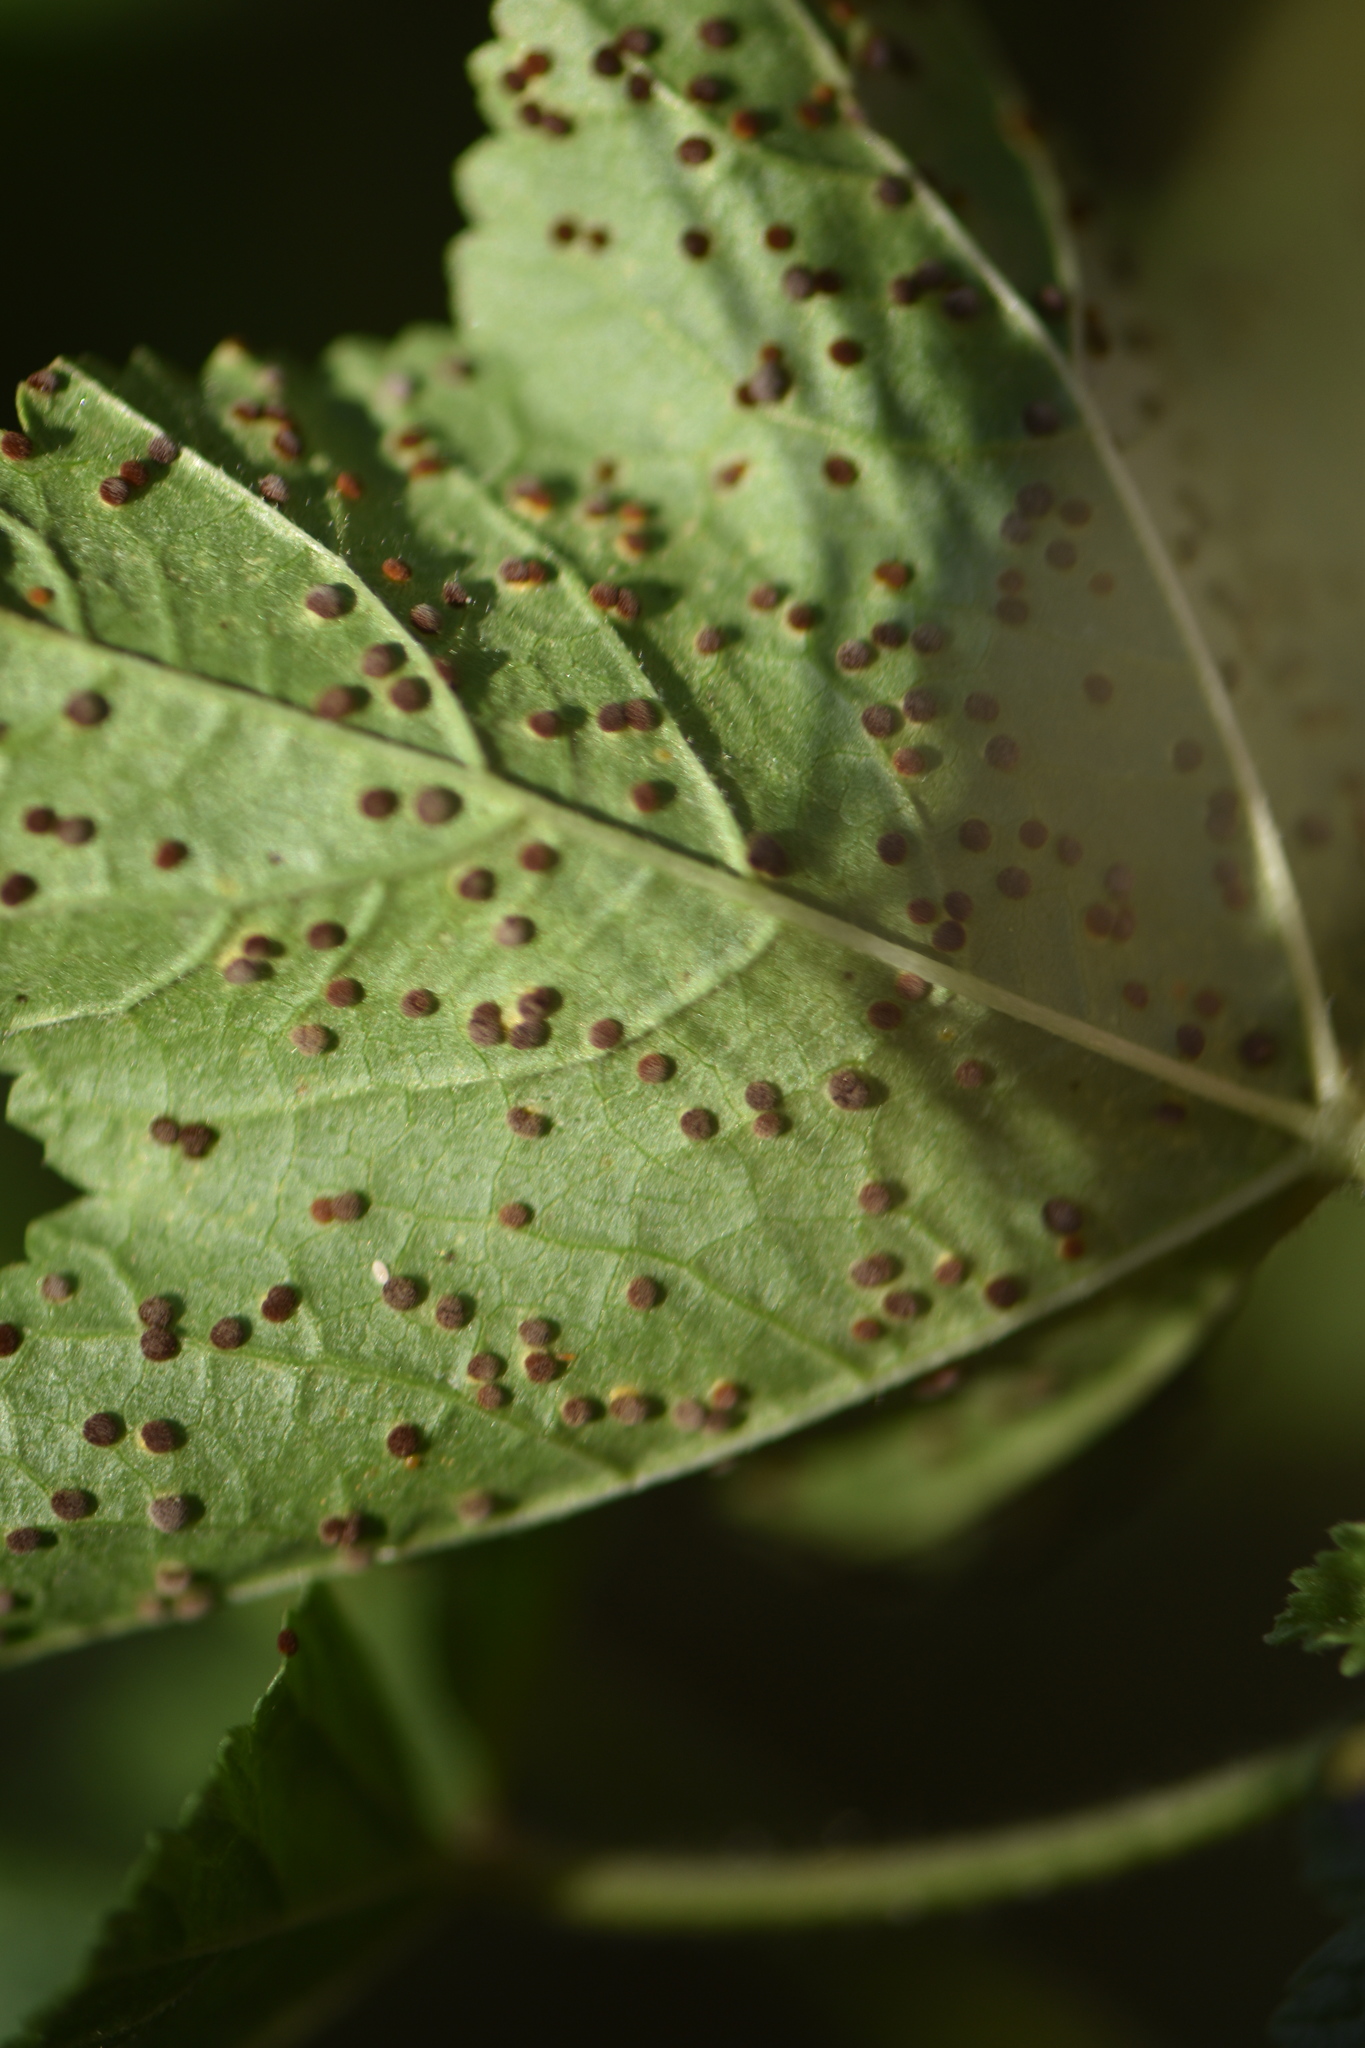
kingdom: Fungi
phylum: Basidiomycota
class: Pucciniomycetes
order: Pucciniales
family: Pucciniaceae
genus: Puccinia
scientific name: Puccinia malvacearum
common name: Hollyhock rust
